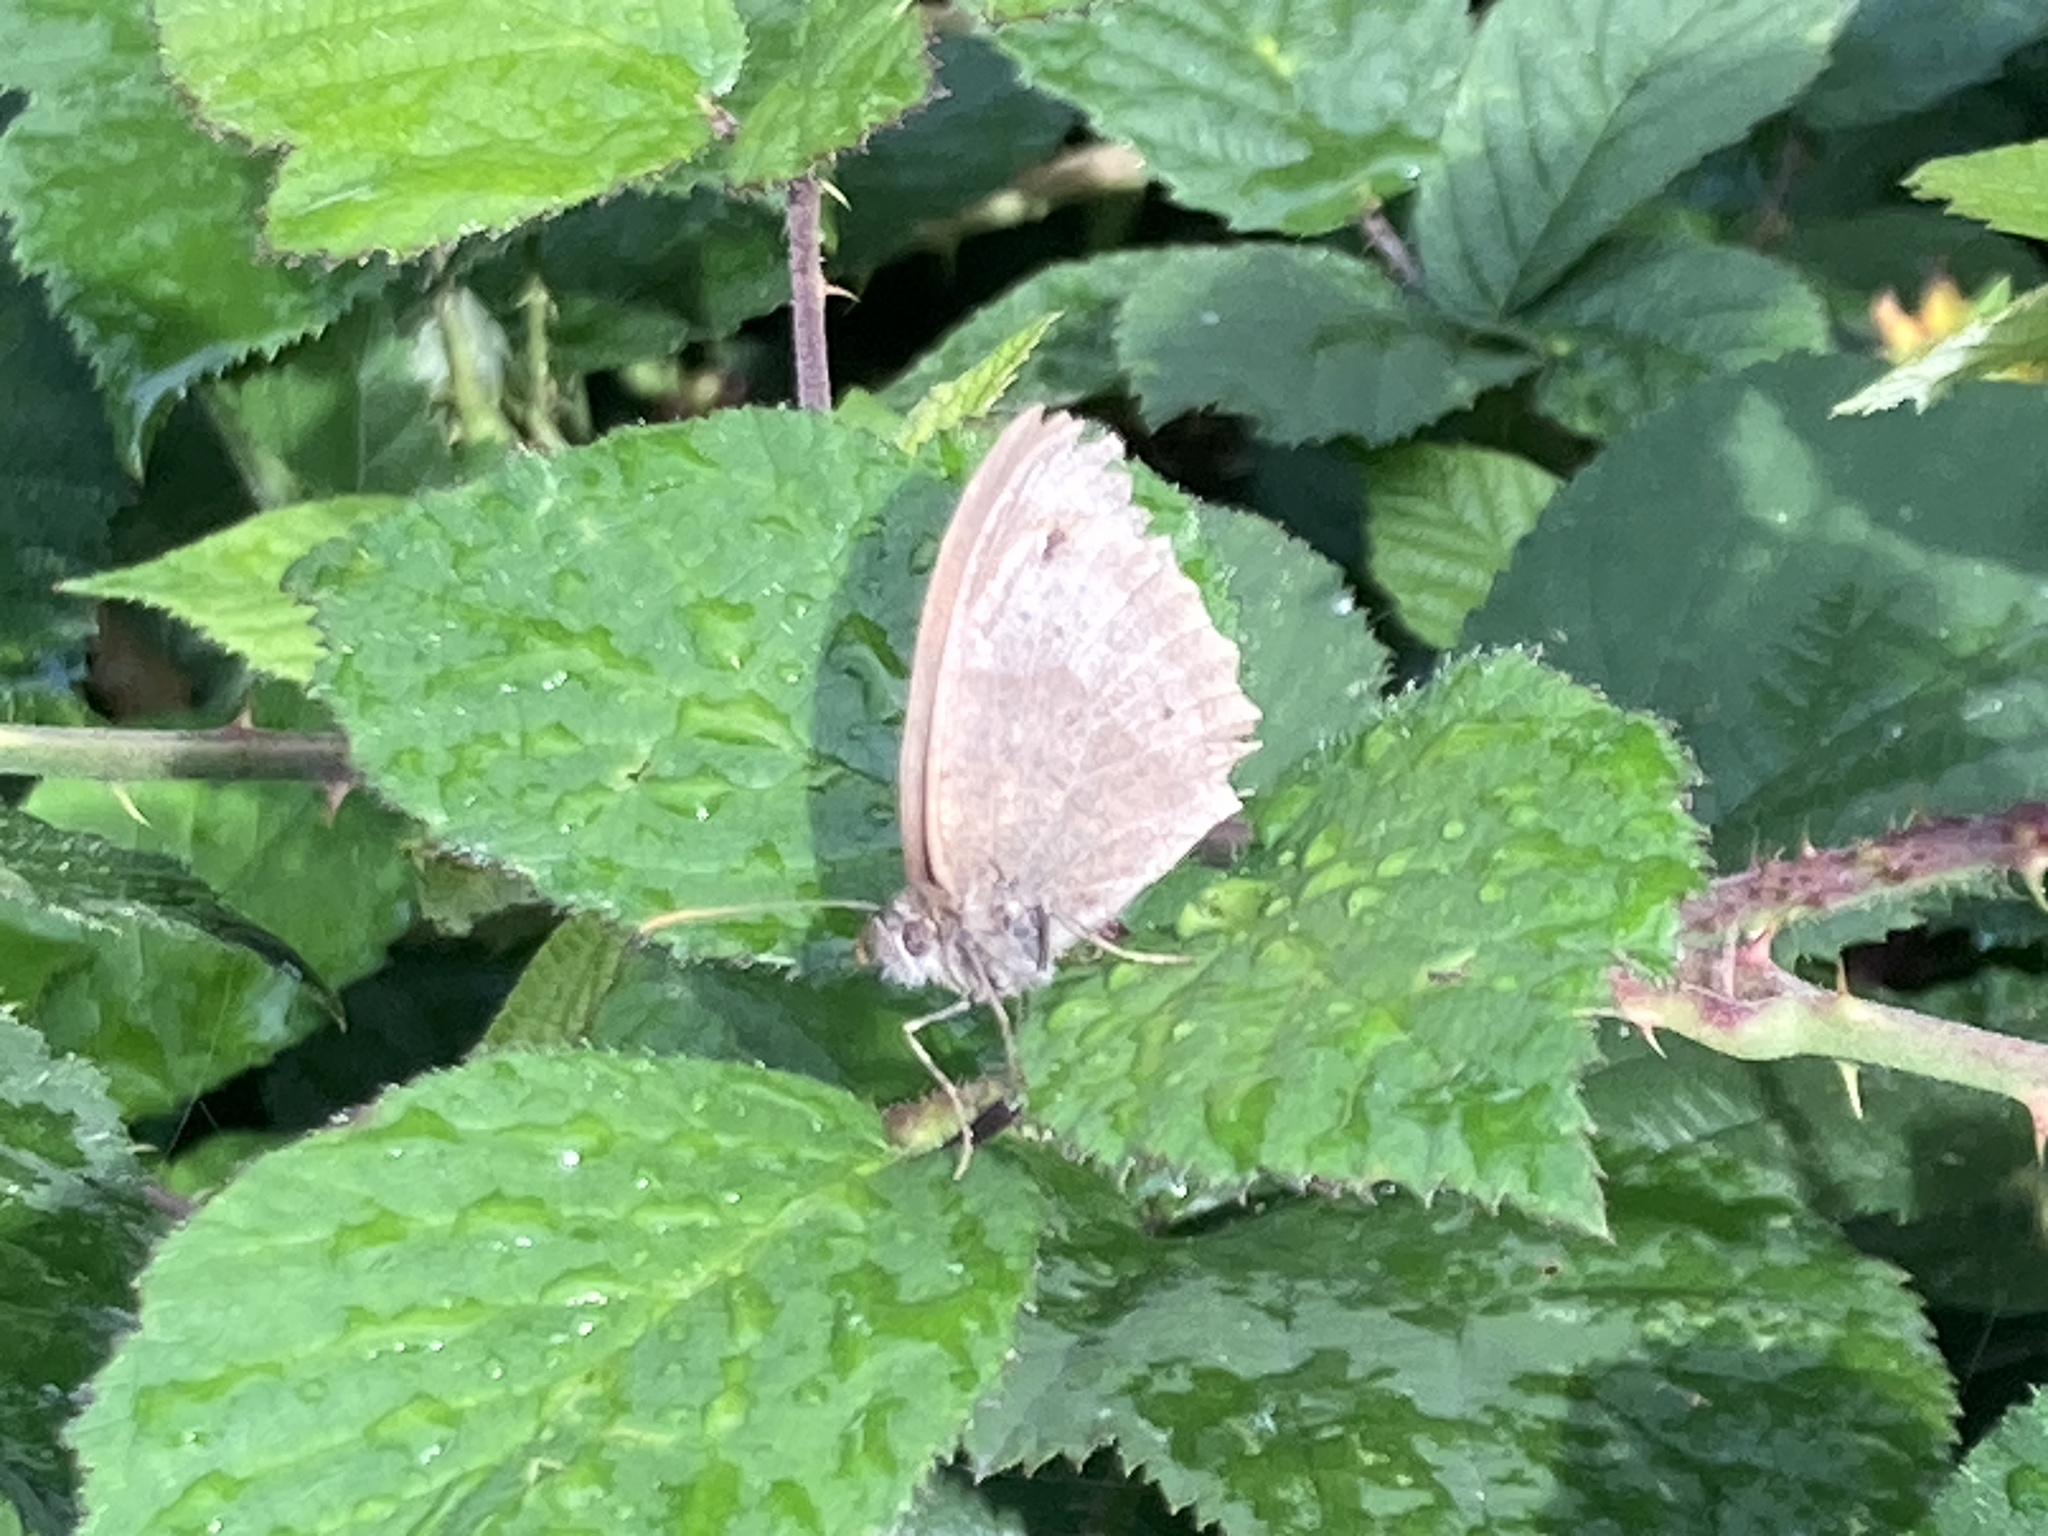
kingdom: Animalia
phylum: Arthropoda
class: Insecta
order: Lepidoptera
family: Nymphalidae
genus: Maniola
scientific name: Maniola jurtina
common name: Meadow brown
